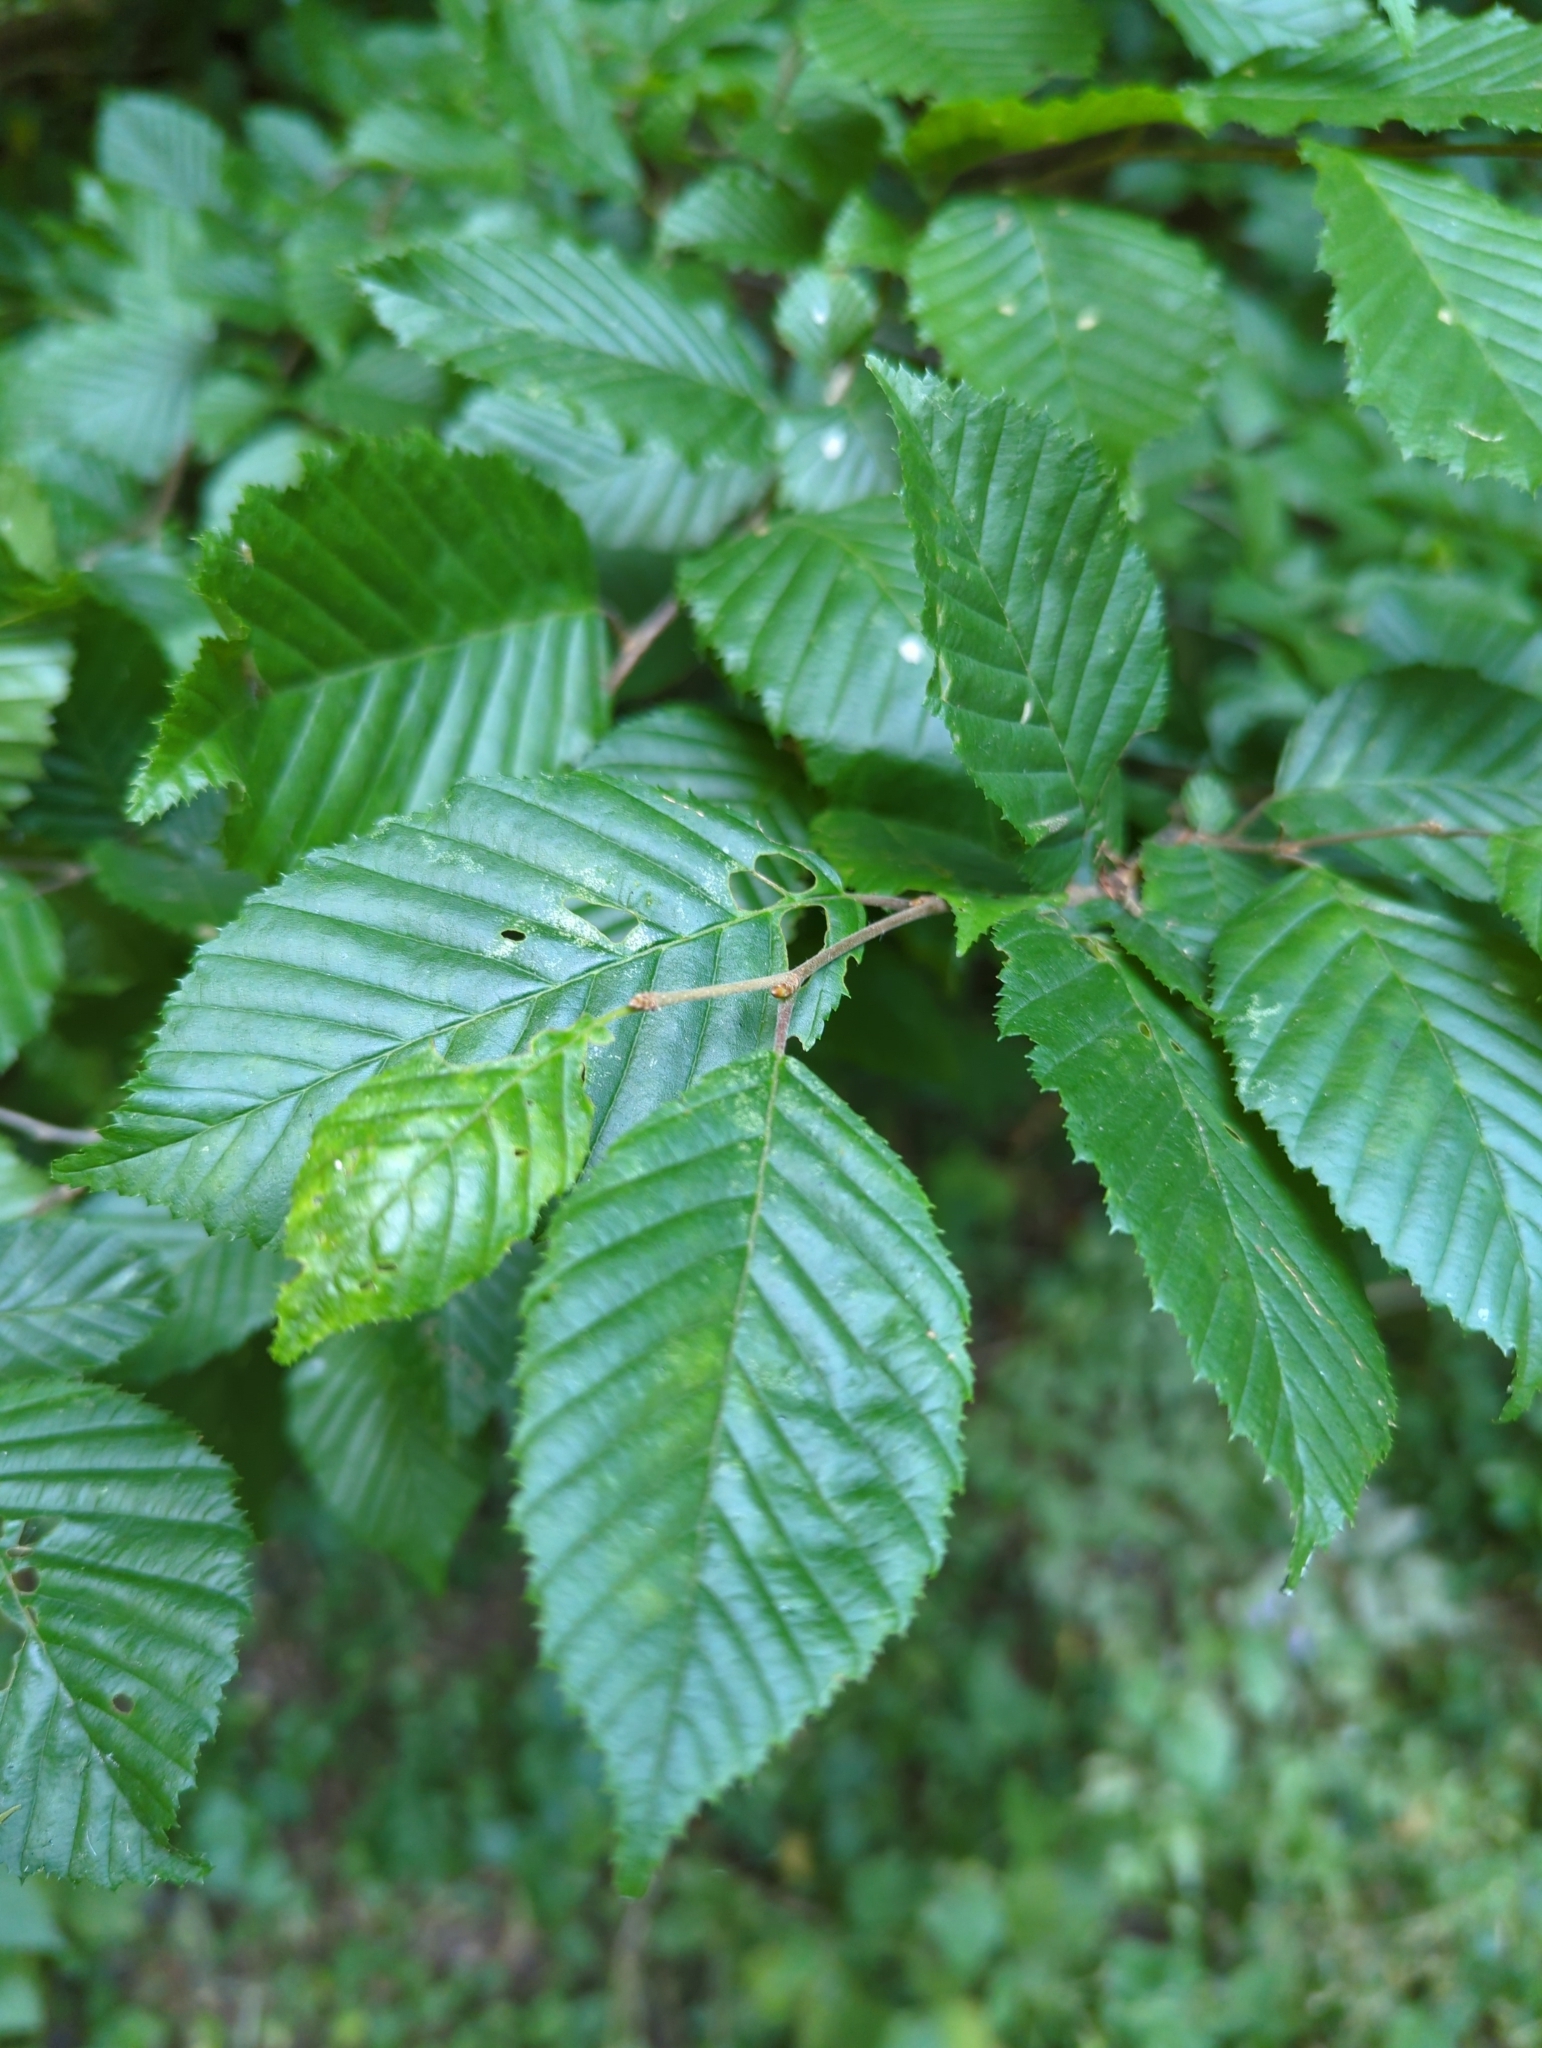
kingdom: Plantae
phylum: Tracheophyta
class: Magnoliopsida
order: Fagales
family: Betulaceae
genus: Carpinus
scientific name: Carpinus betulus
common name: Hornbeam
